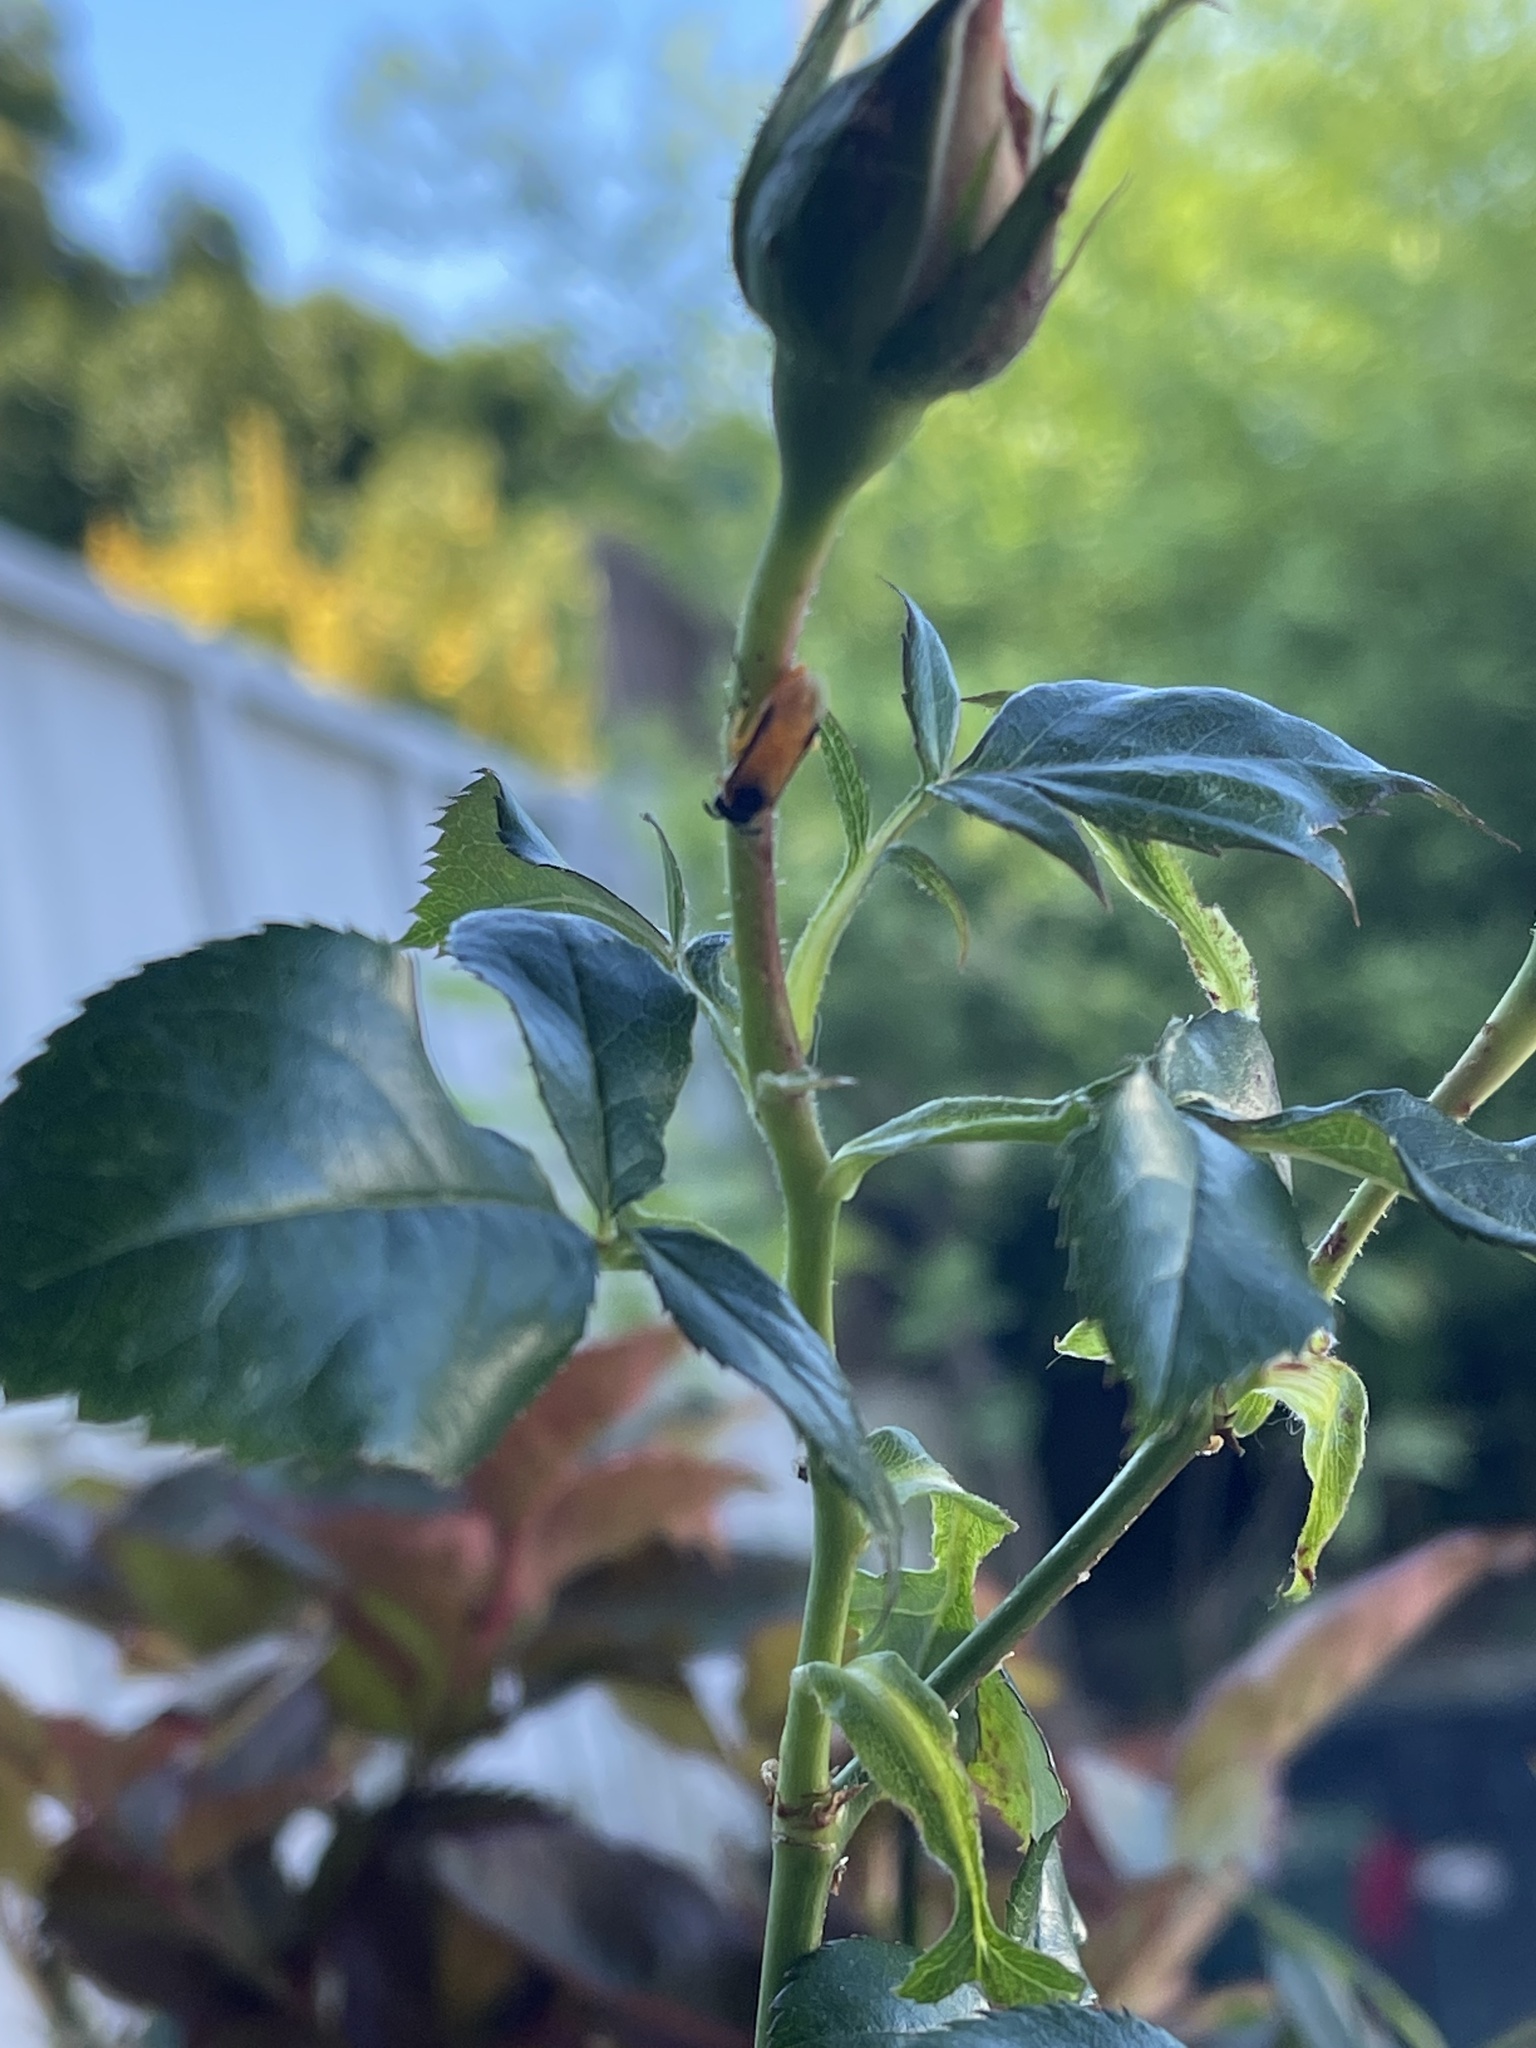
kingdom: Animalia
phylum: Arthropoda
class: Insecta
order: Hymenoptera
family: Argidae
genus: Arge
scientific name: Arge ochropus
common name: Argid sawfly
